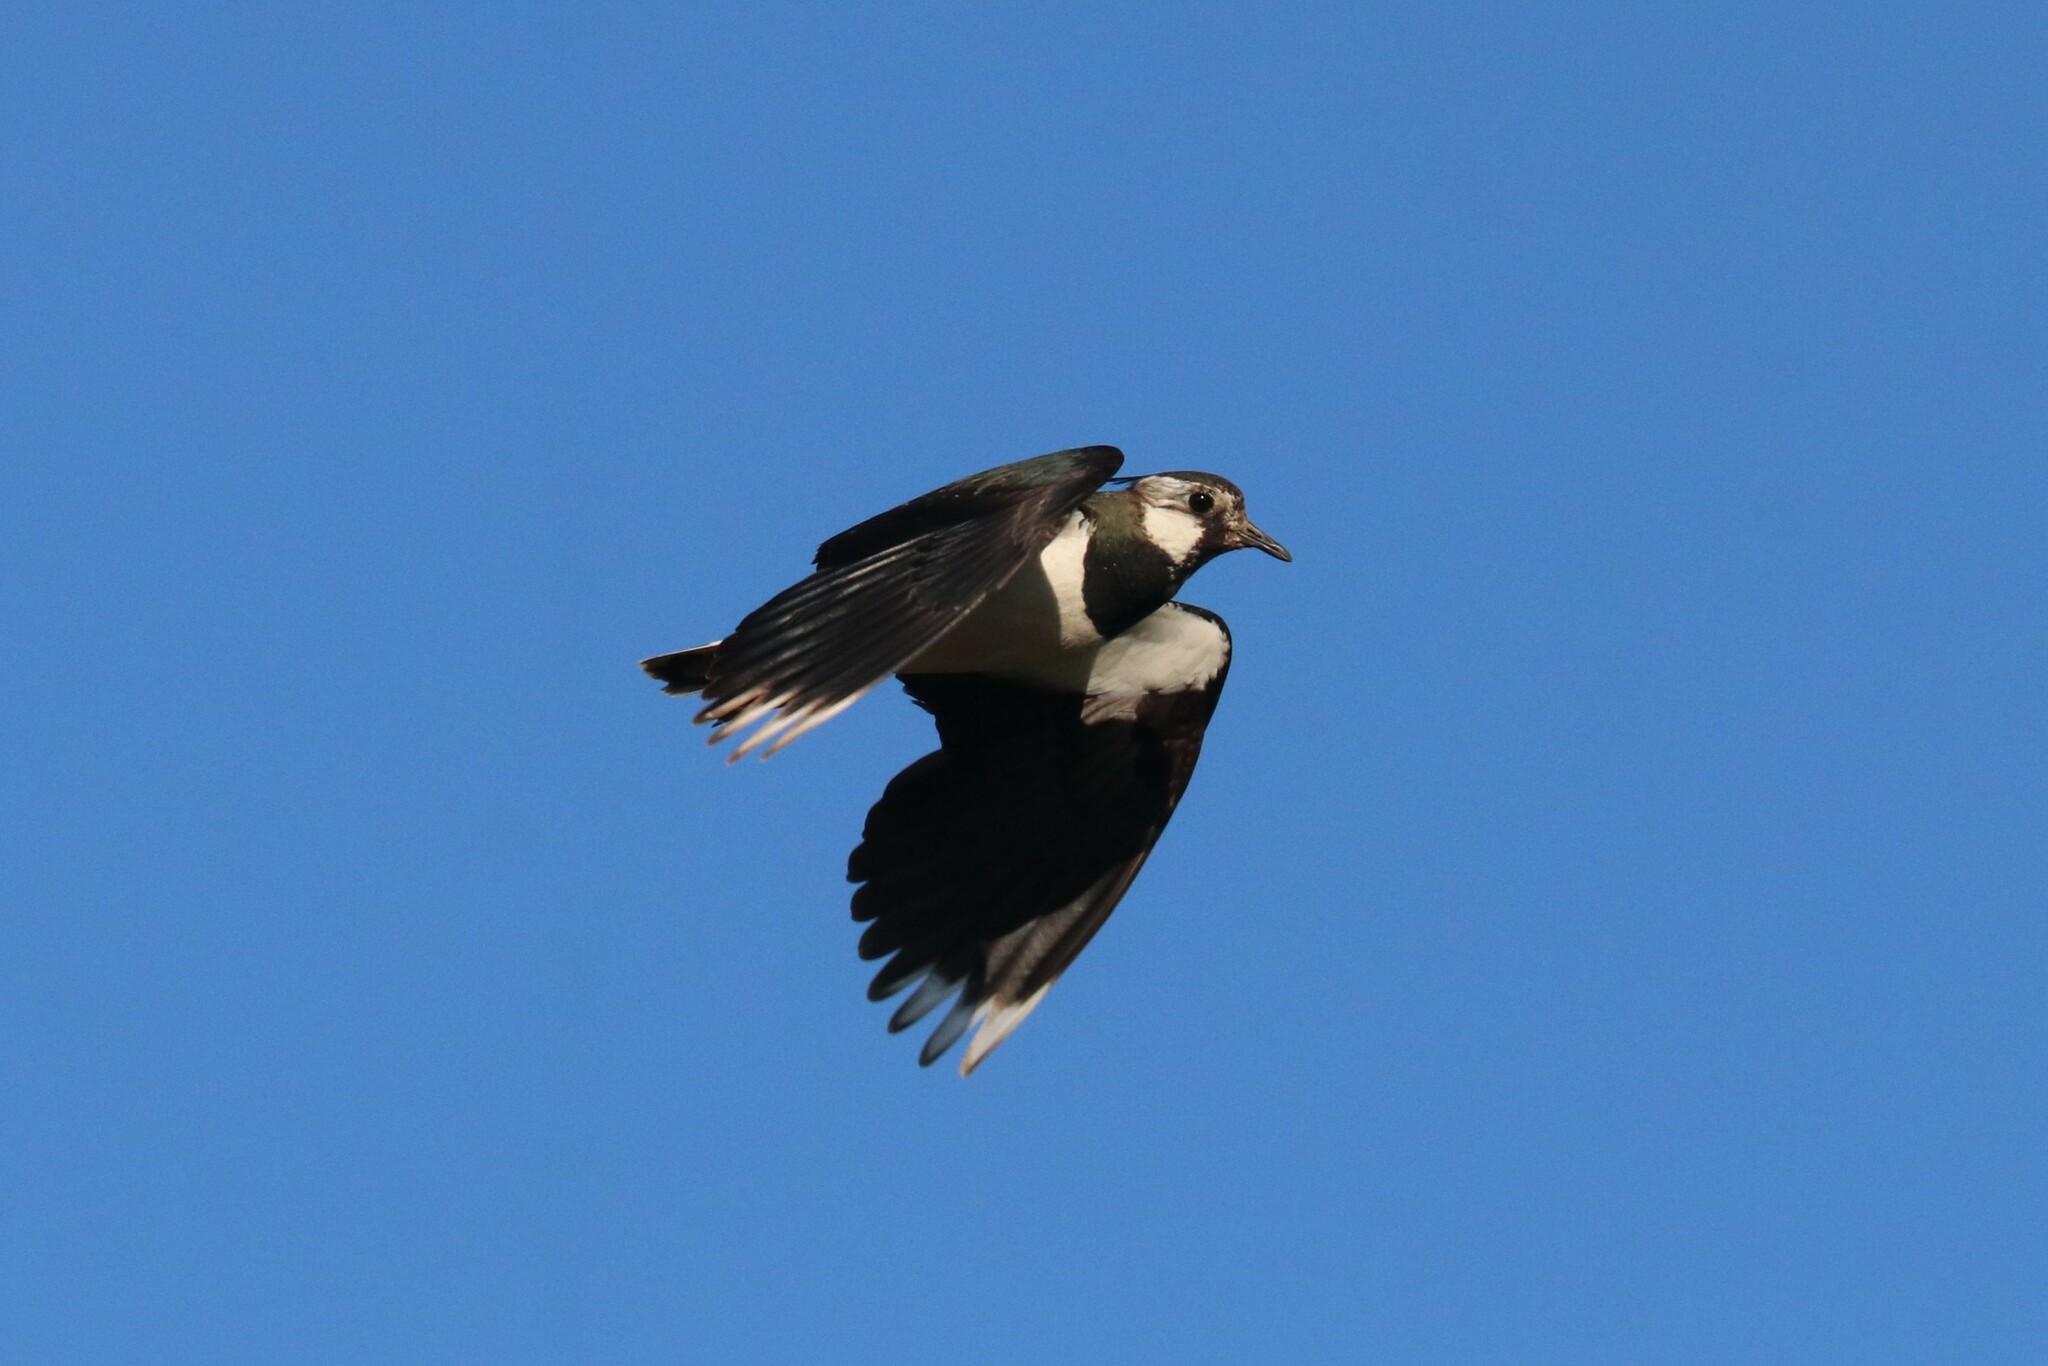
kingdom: Animalia
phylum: Chordata
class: Aves
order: Charadriiformes
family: Charadriidae
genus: Vanellus
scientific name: Vanellus vanellus
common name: Northern lapwing
